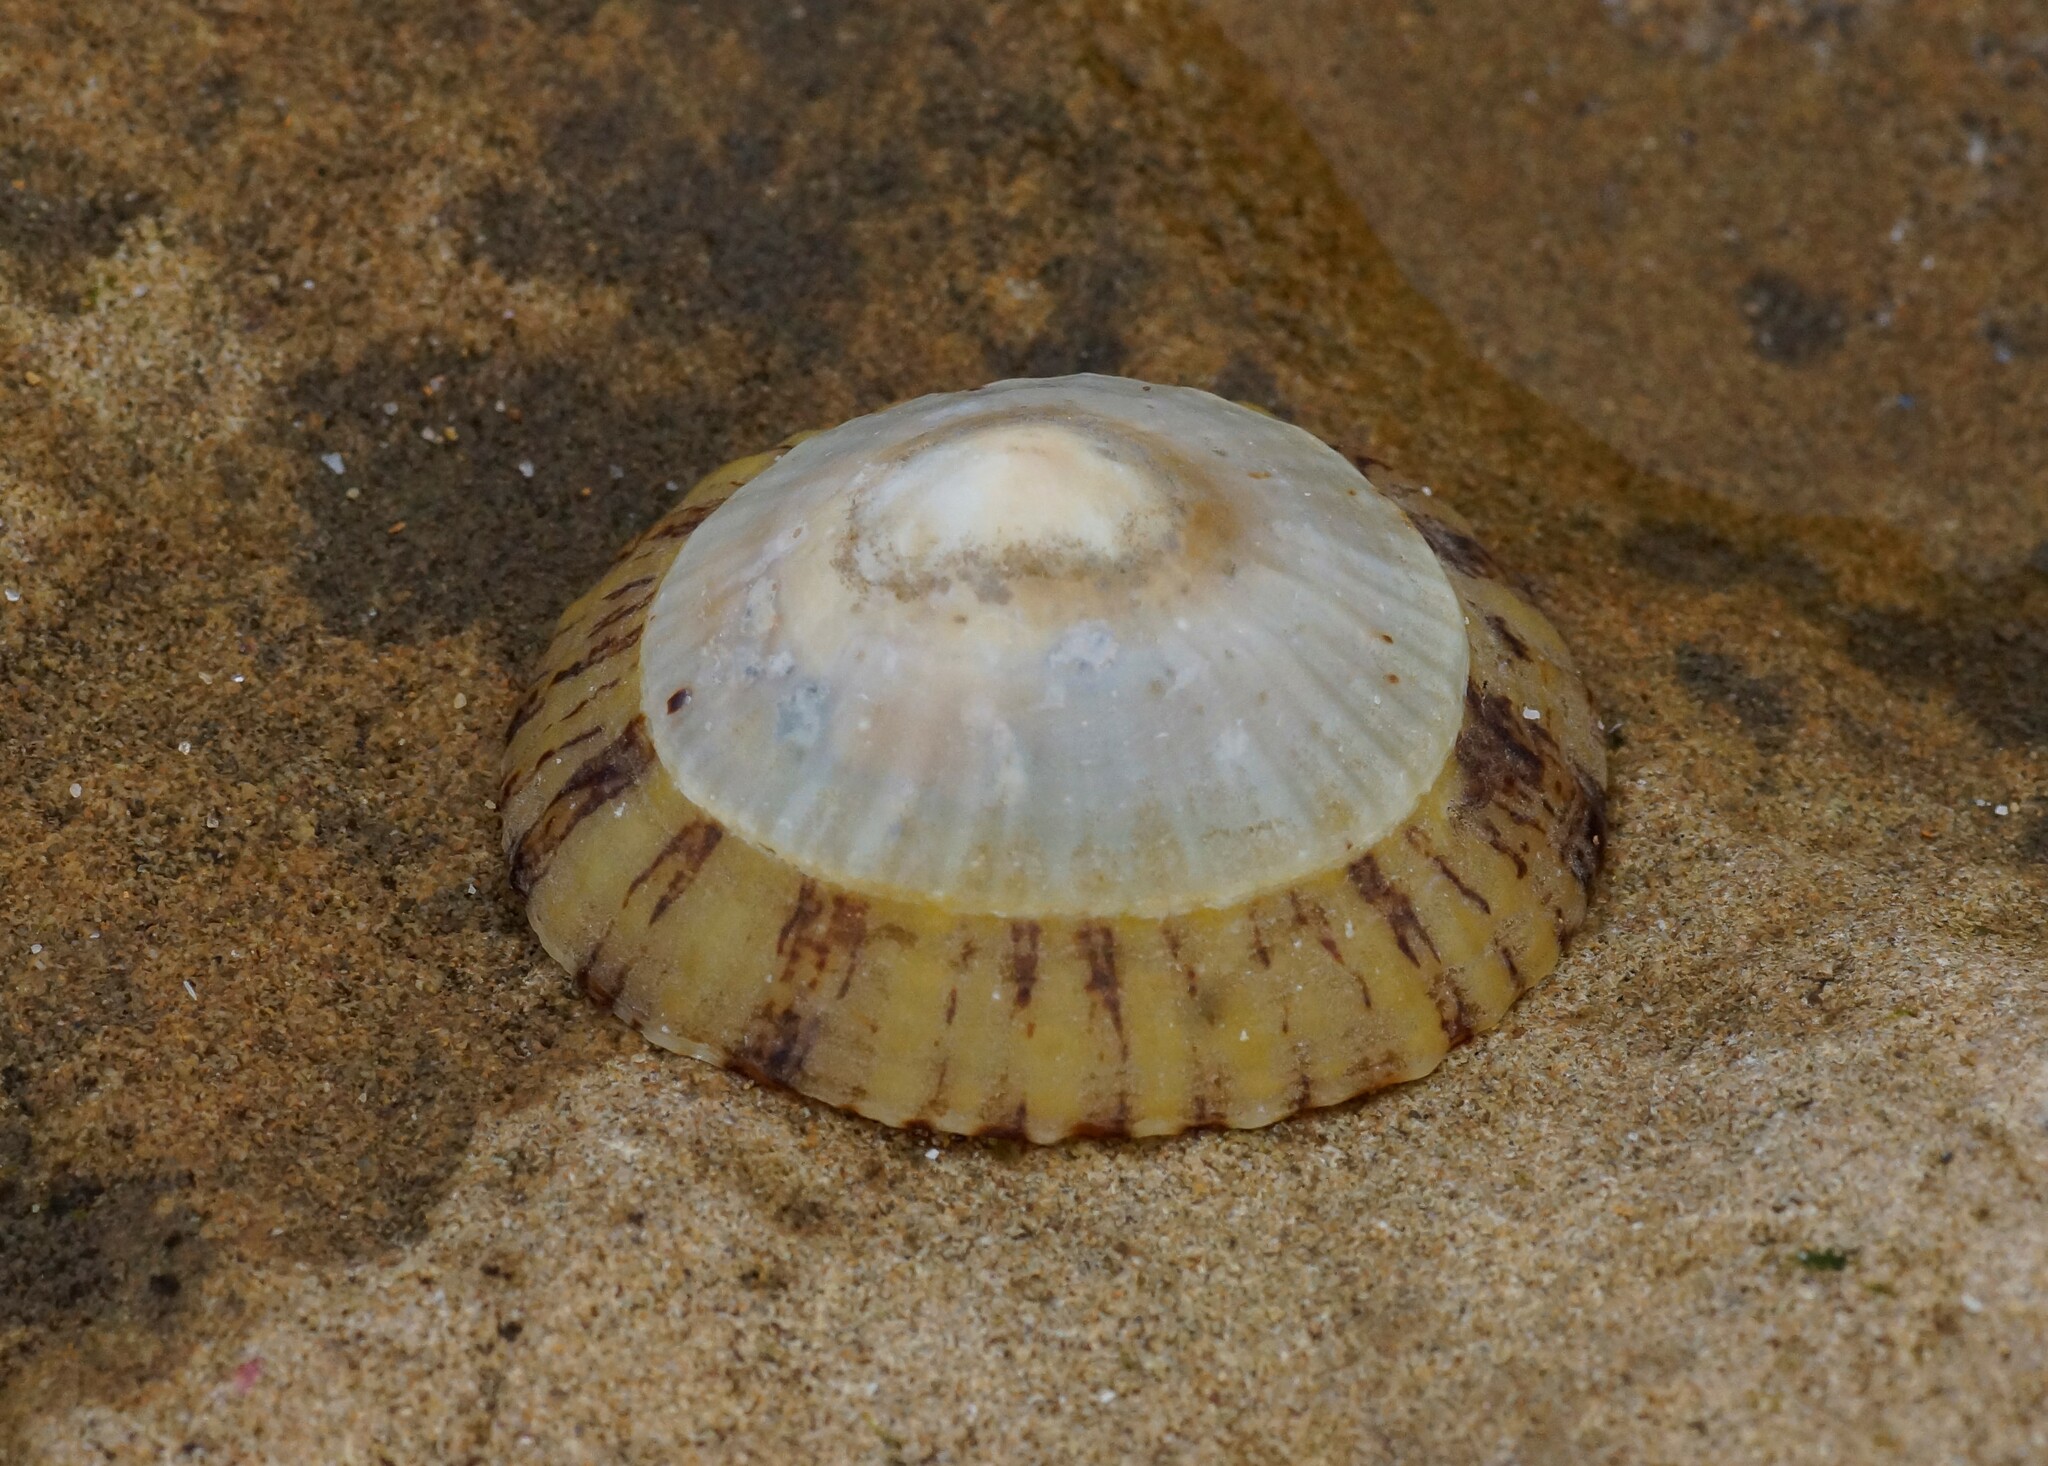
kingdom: Animalia
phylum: Mollusca
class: Gastropoda
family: Nacellidae
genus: Cellana
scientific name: Cellana tramoserica
